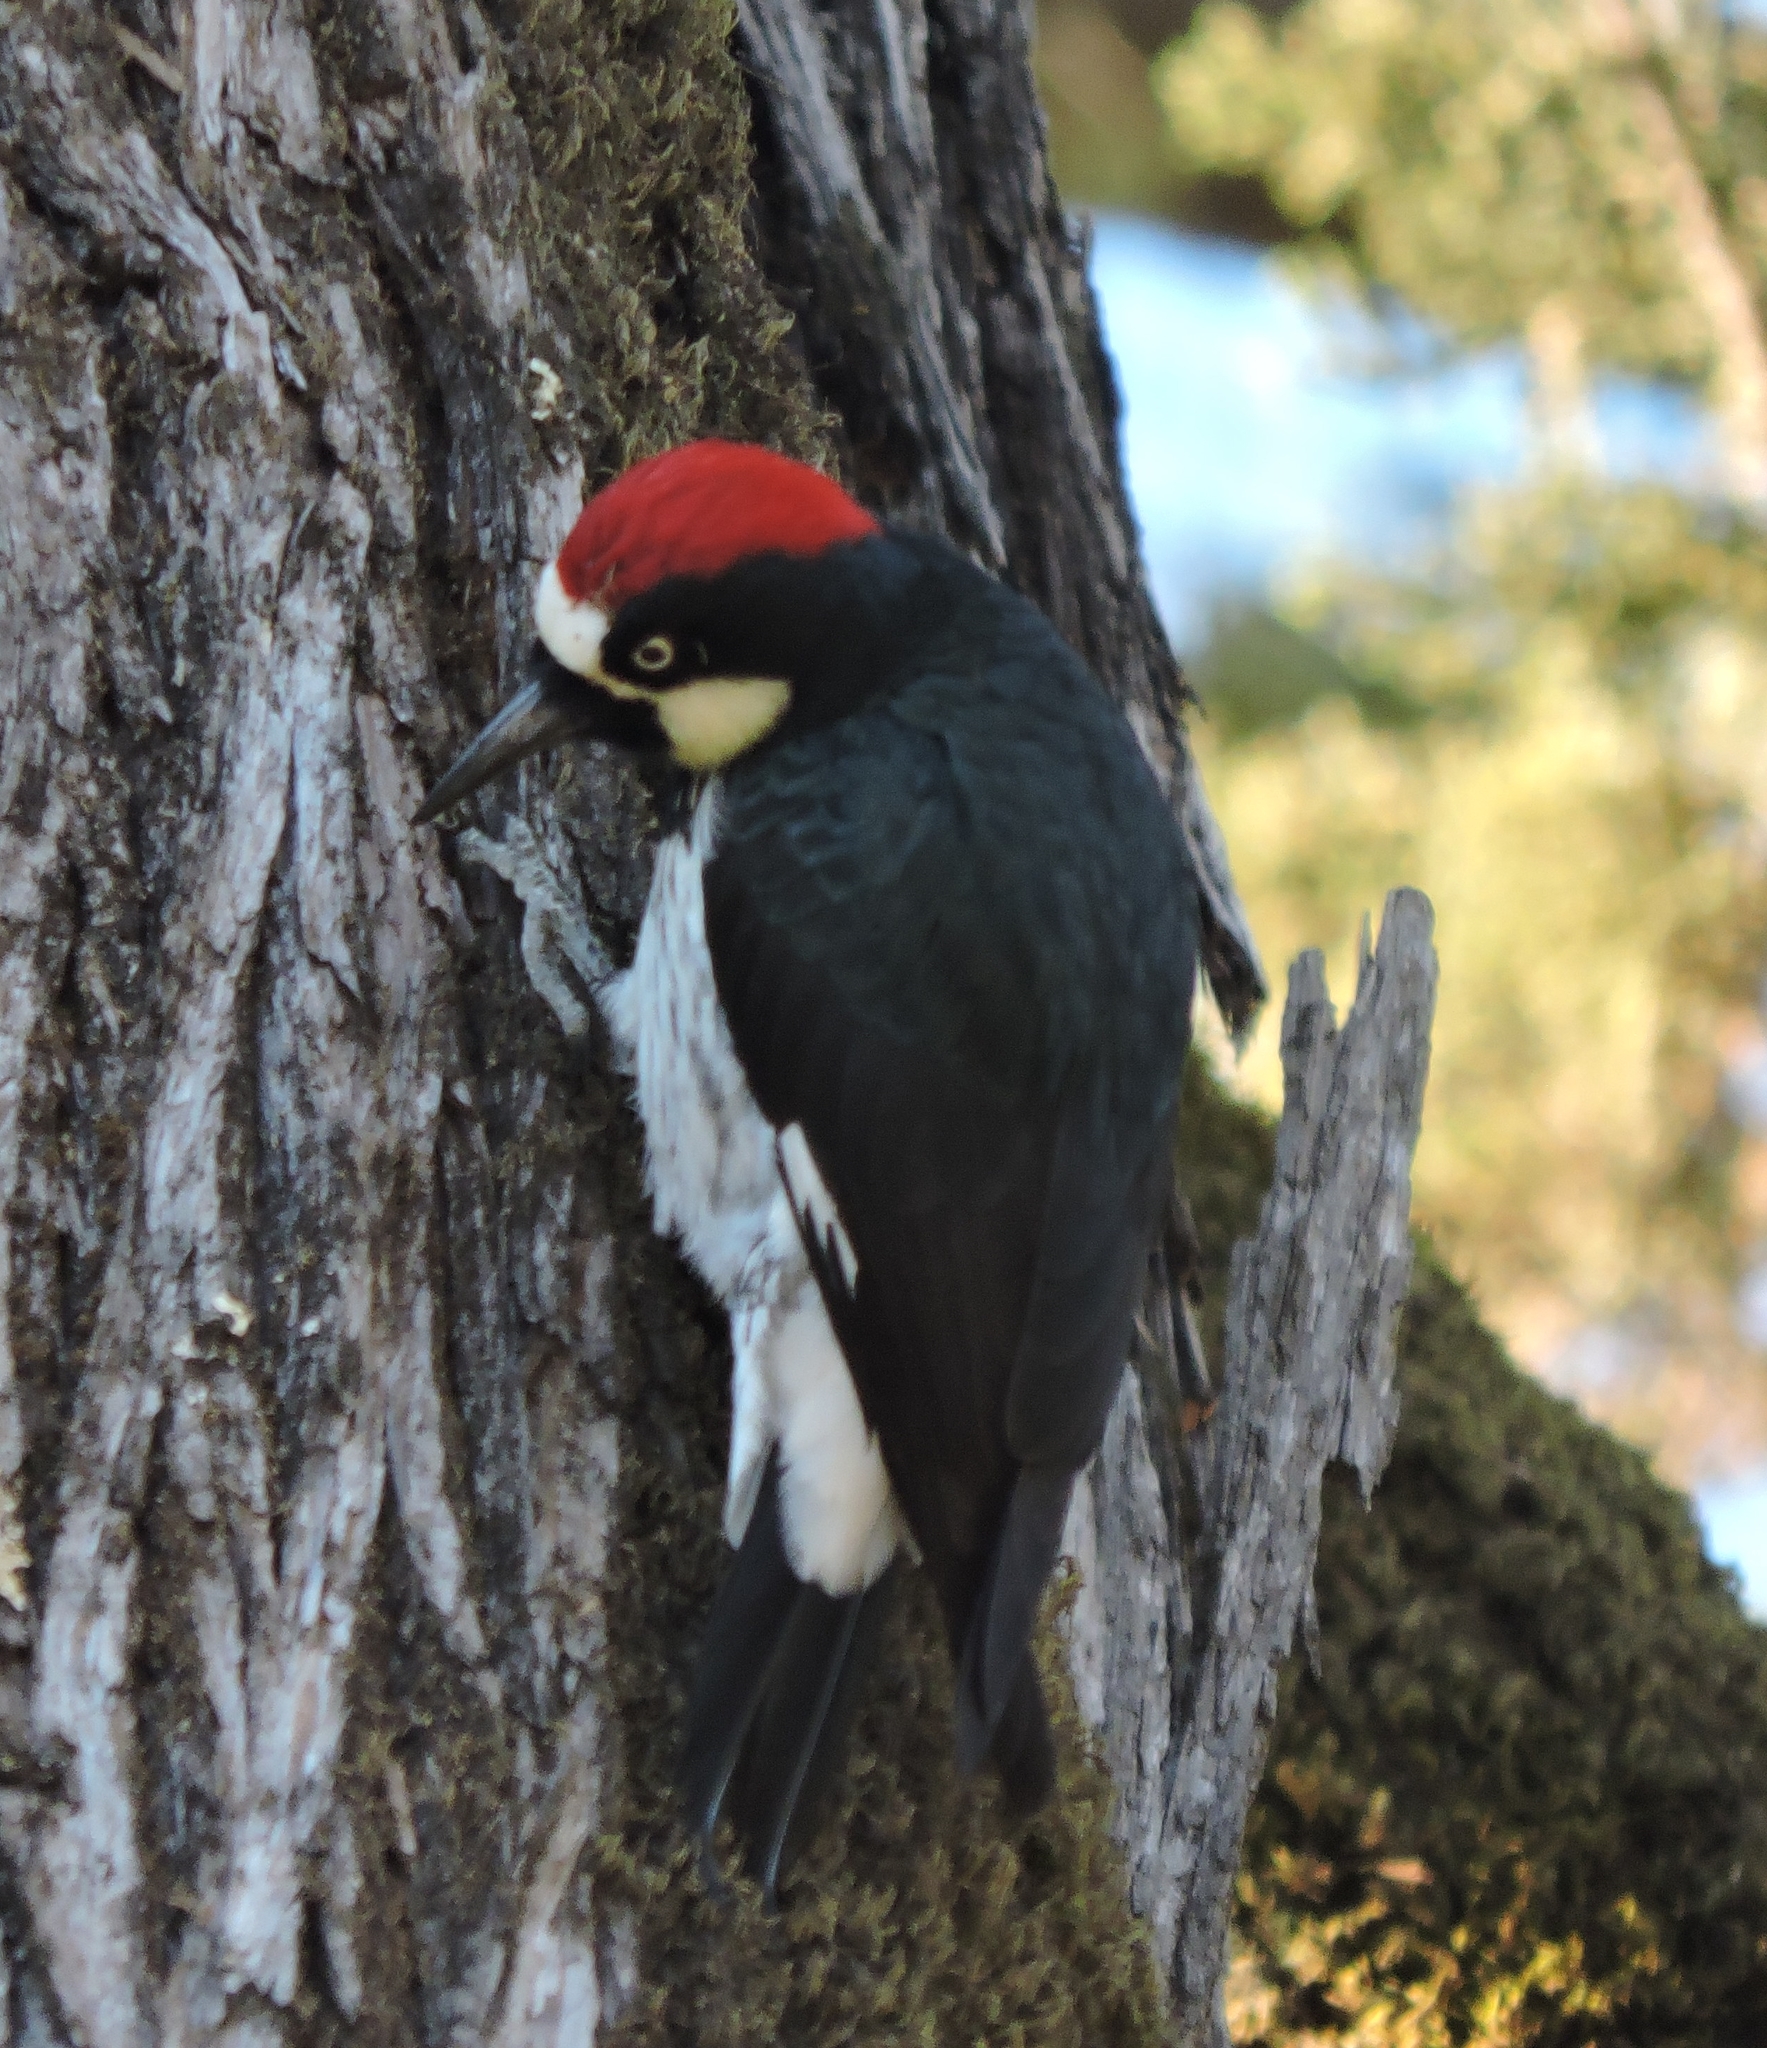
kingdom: Animalia
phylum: Chordata
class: Aves
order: Piciformes
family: Picidae
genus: Melanerpes
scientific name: Melanerpes formicivorus
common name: Acorn woodpecker
